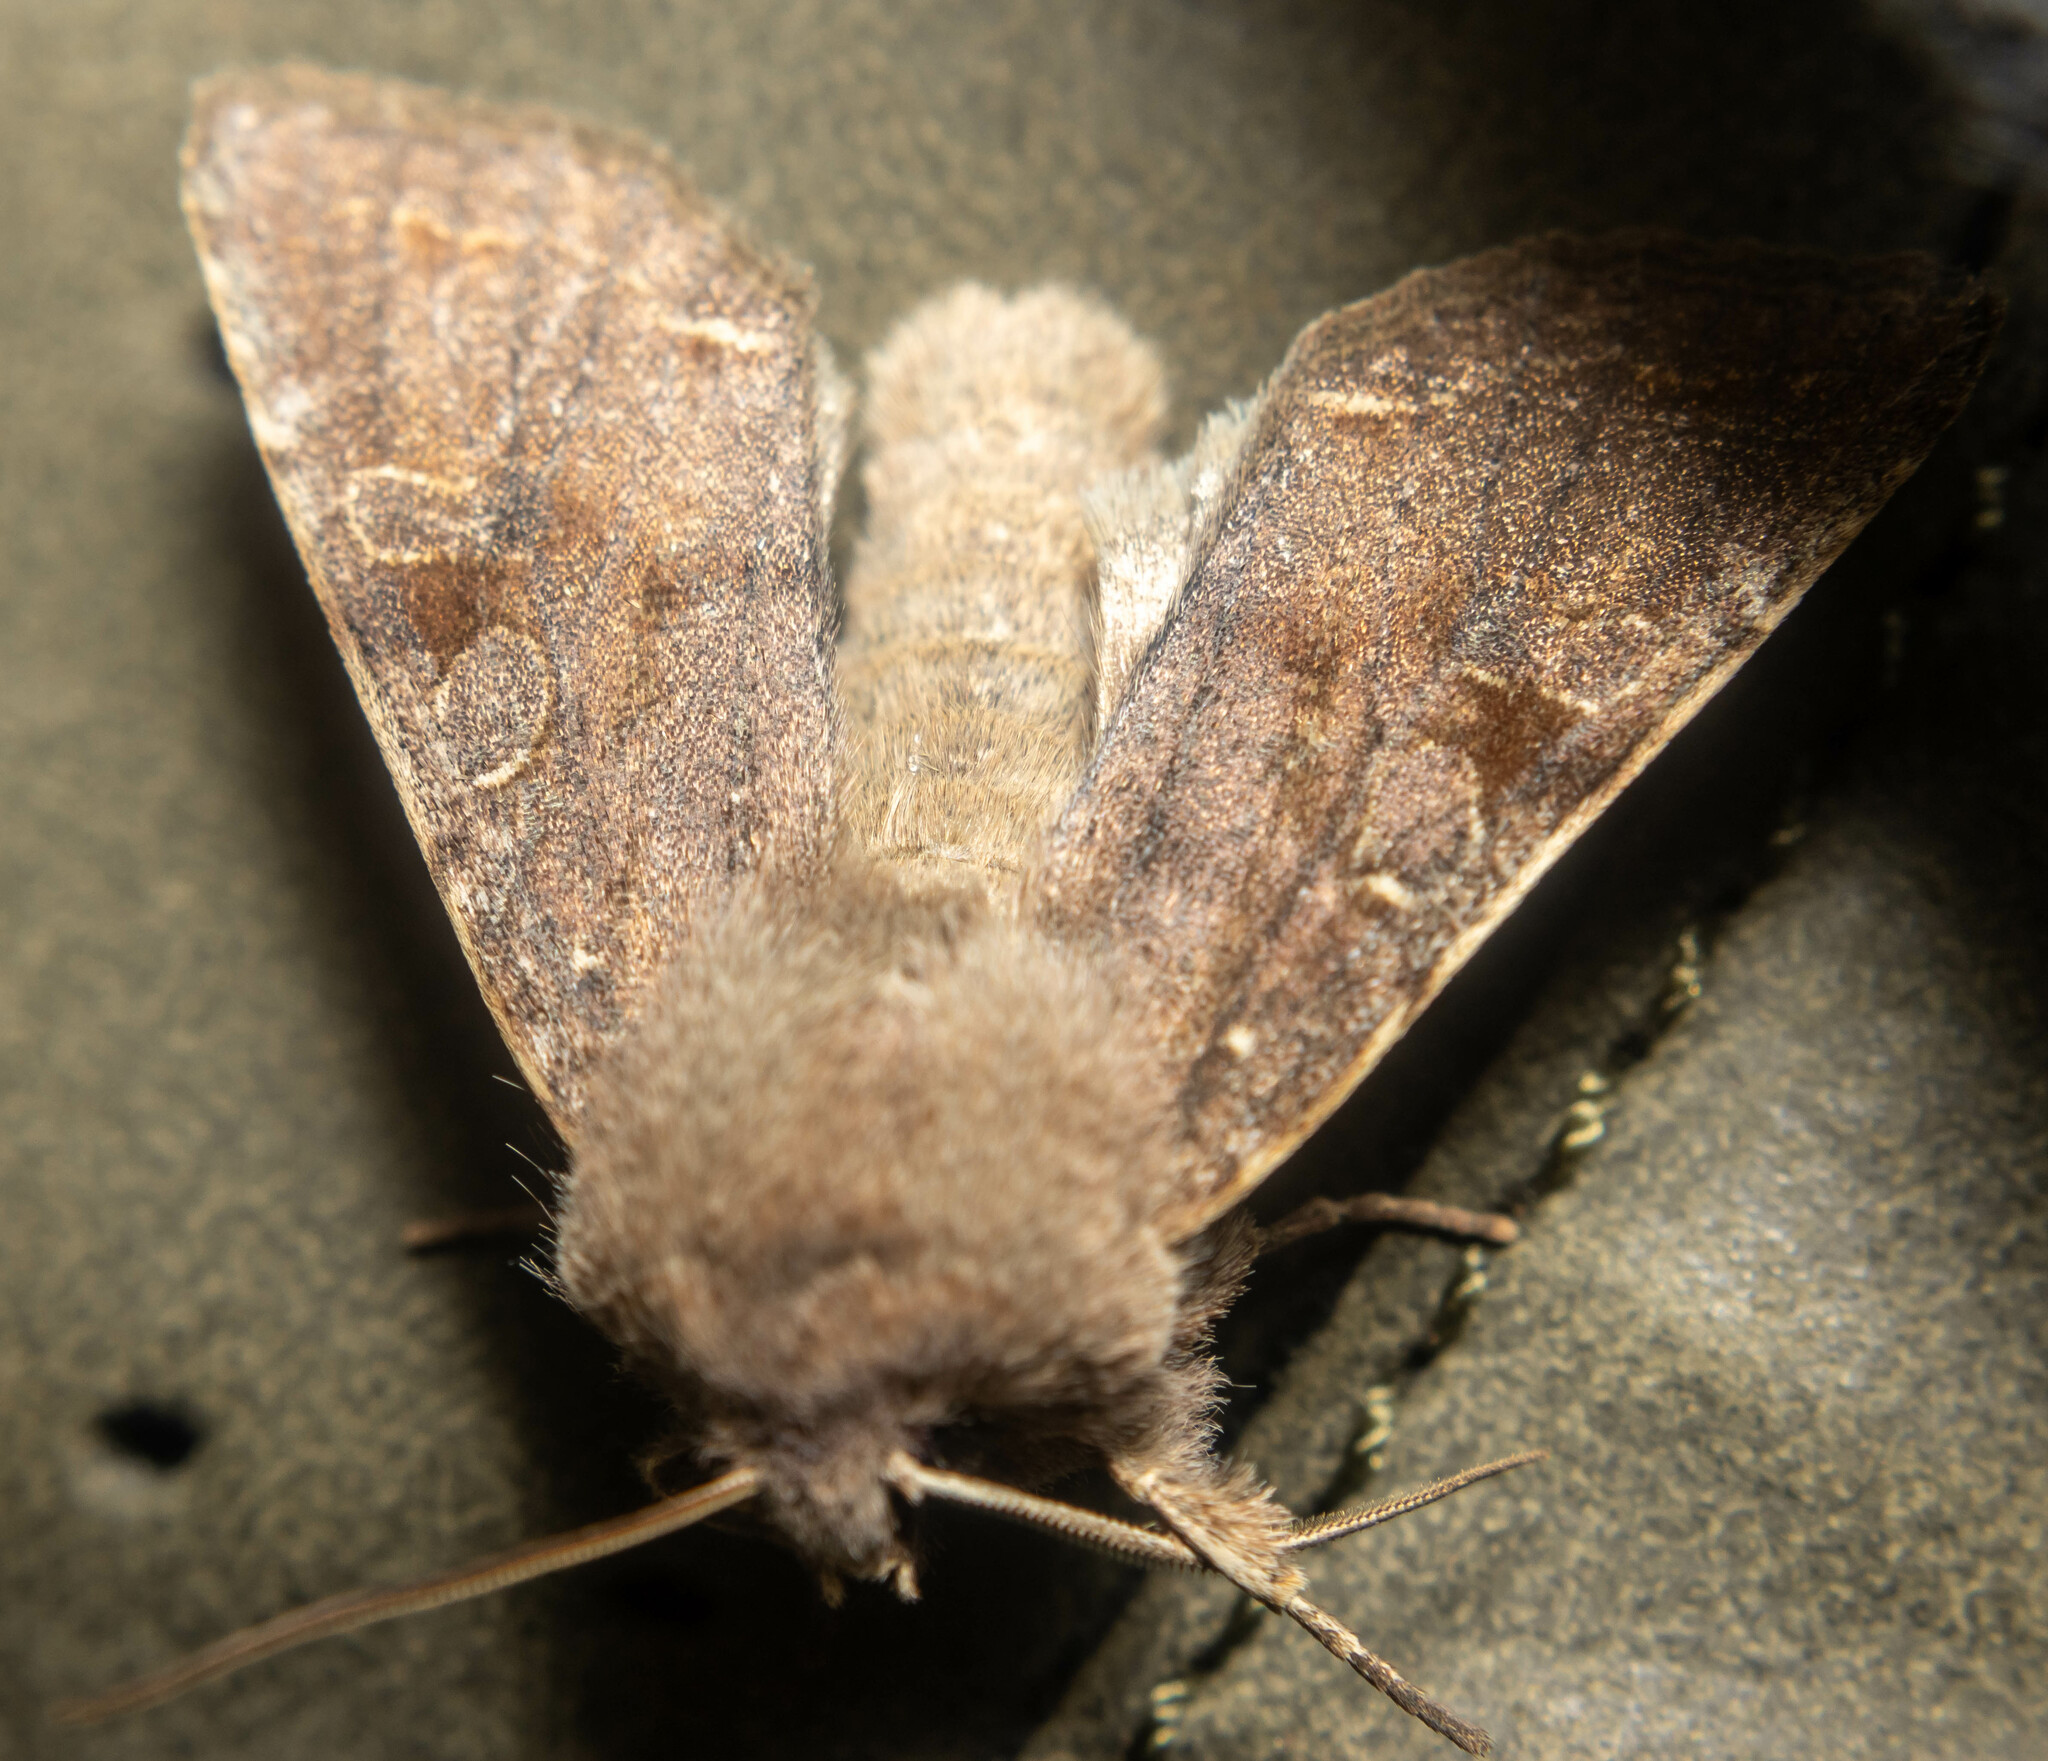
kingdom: Animalia
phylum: Arthropoda
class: Insecta
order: Lepidoptera
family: Noctuidae
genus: Orthosia
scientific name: Orthosia incerta
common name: Clouded drab
